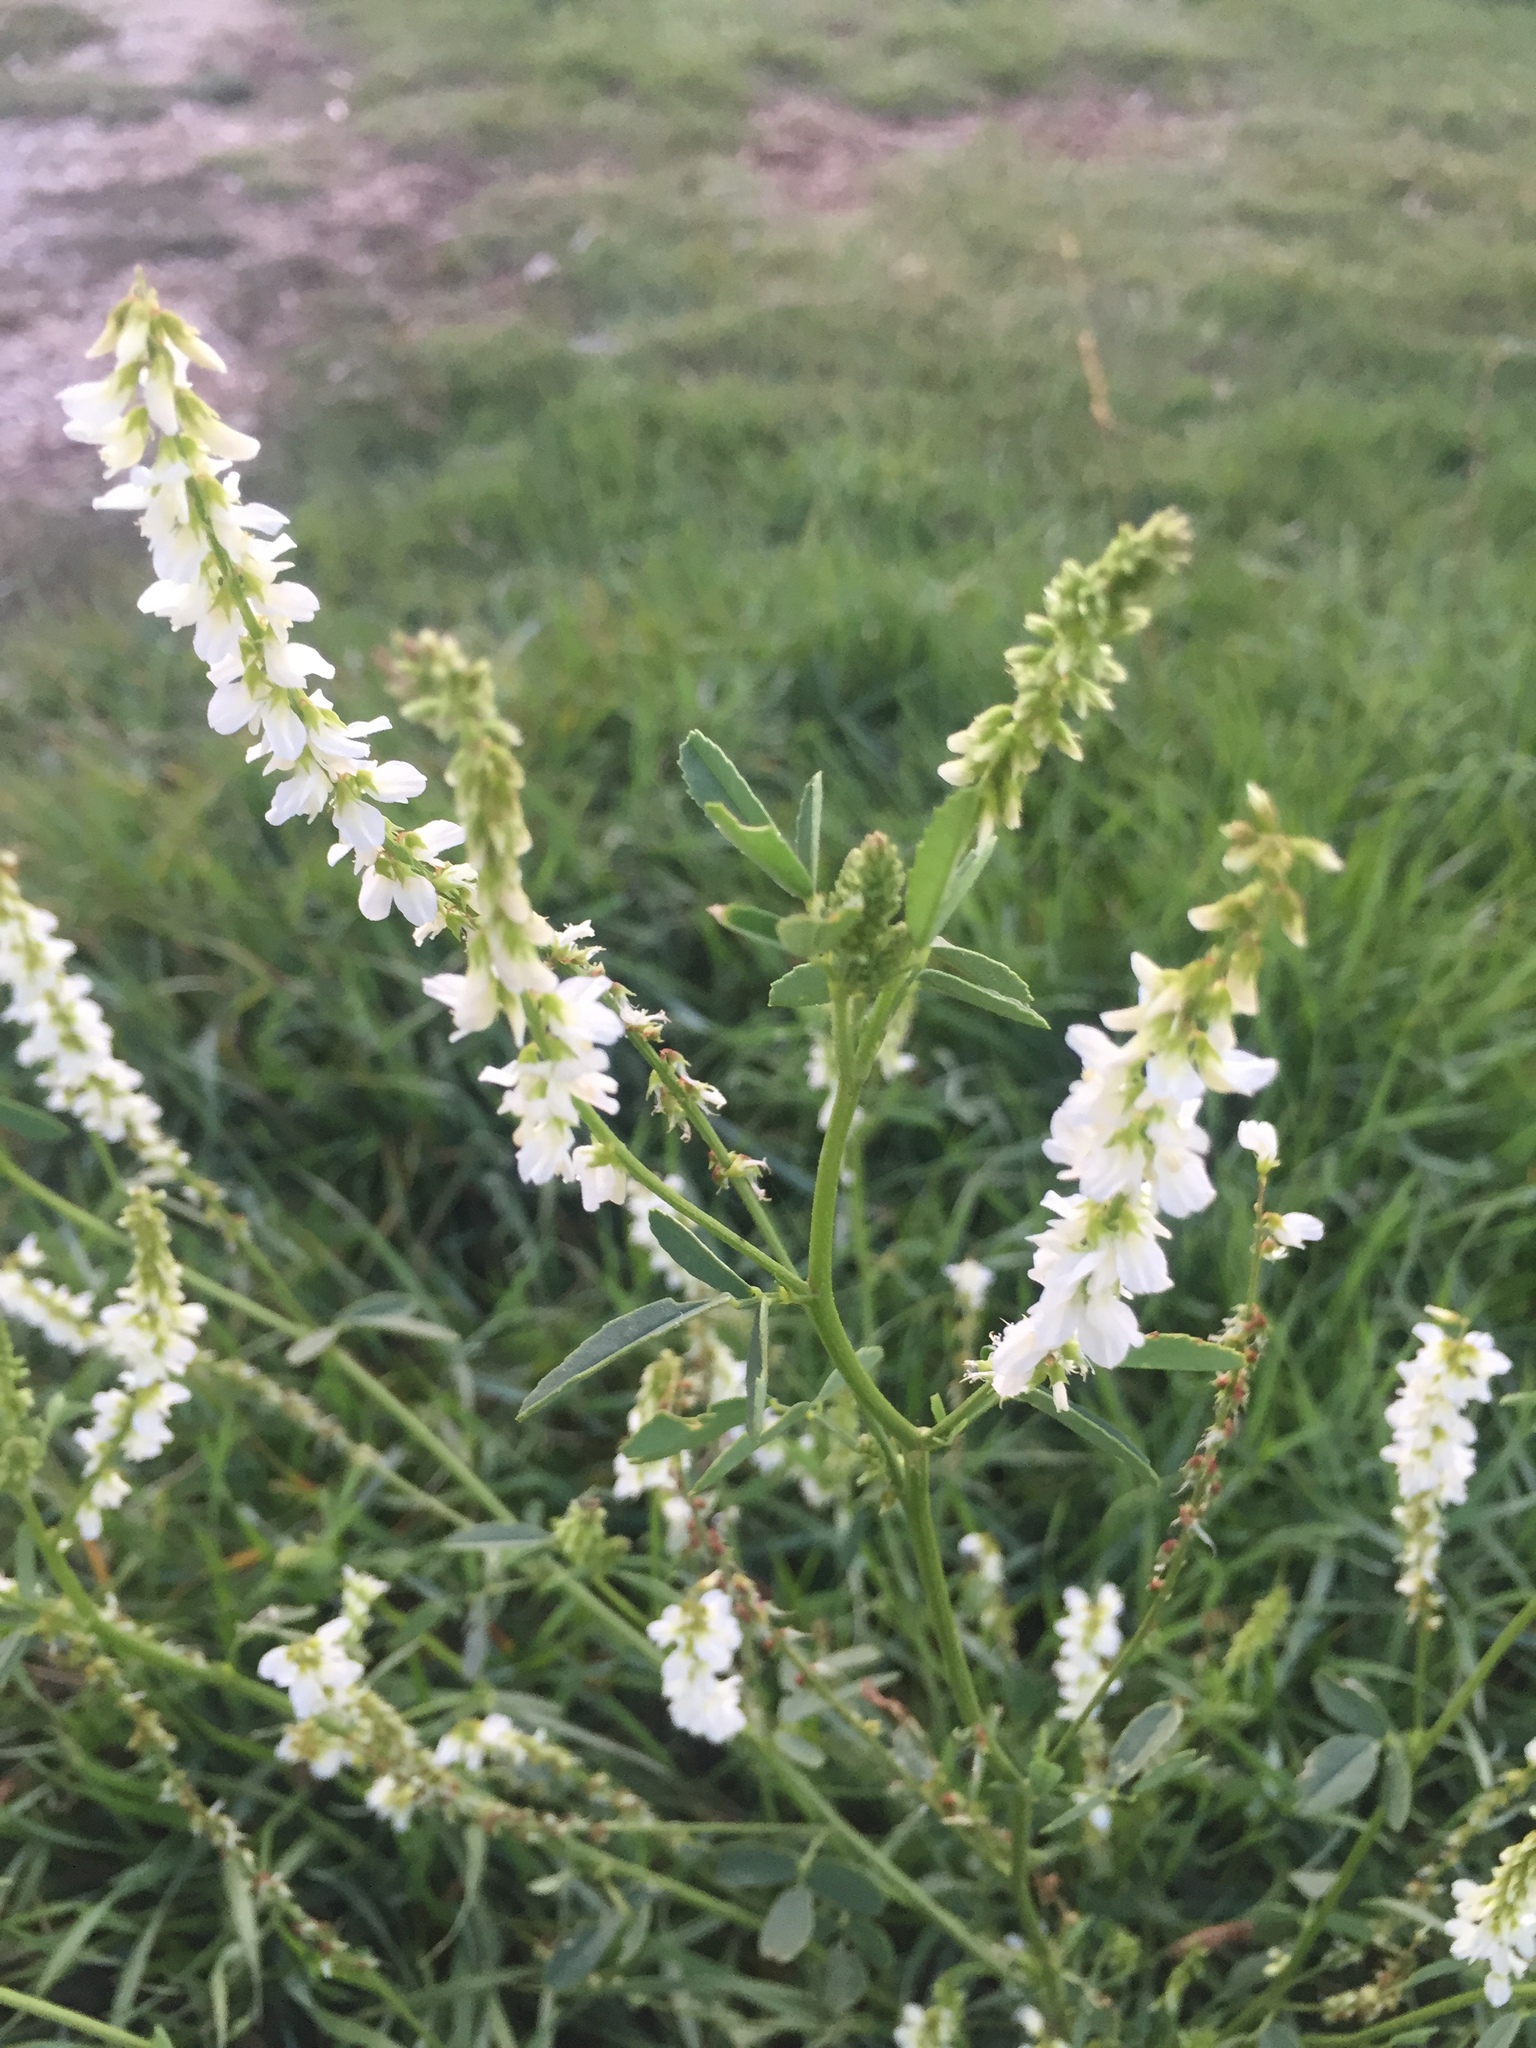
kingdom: Plantae
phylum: Tracheophyta
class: Magnoliopsida
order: Fabales
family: Fabaceae
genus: Melilotus
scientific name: Melilotus albus
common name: White melilot
